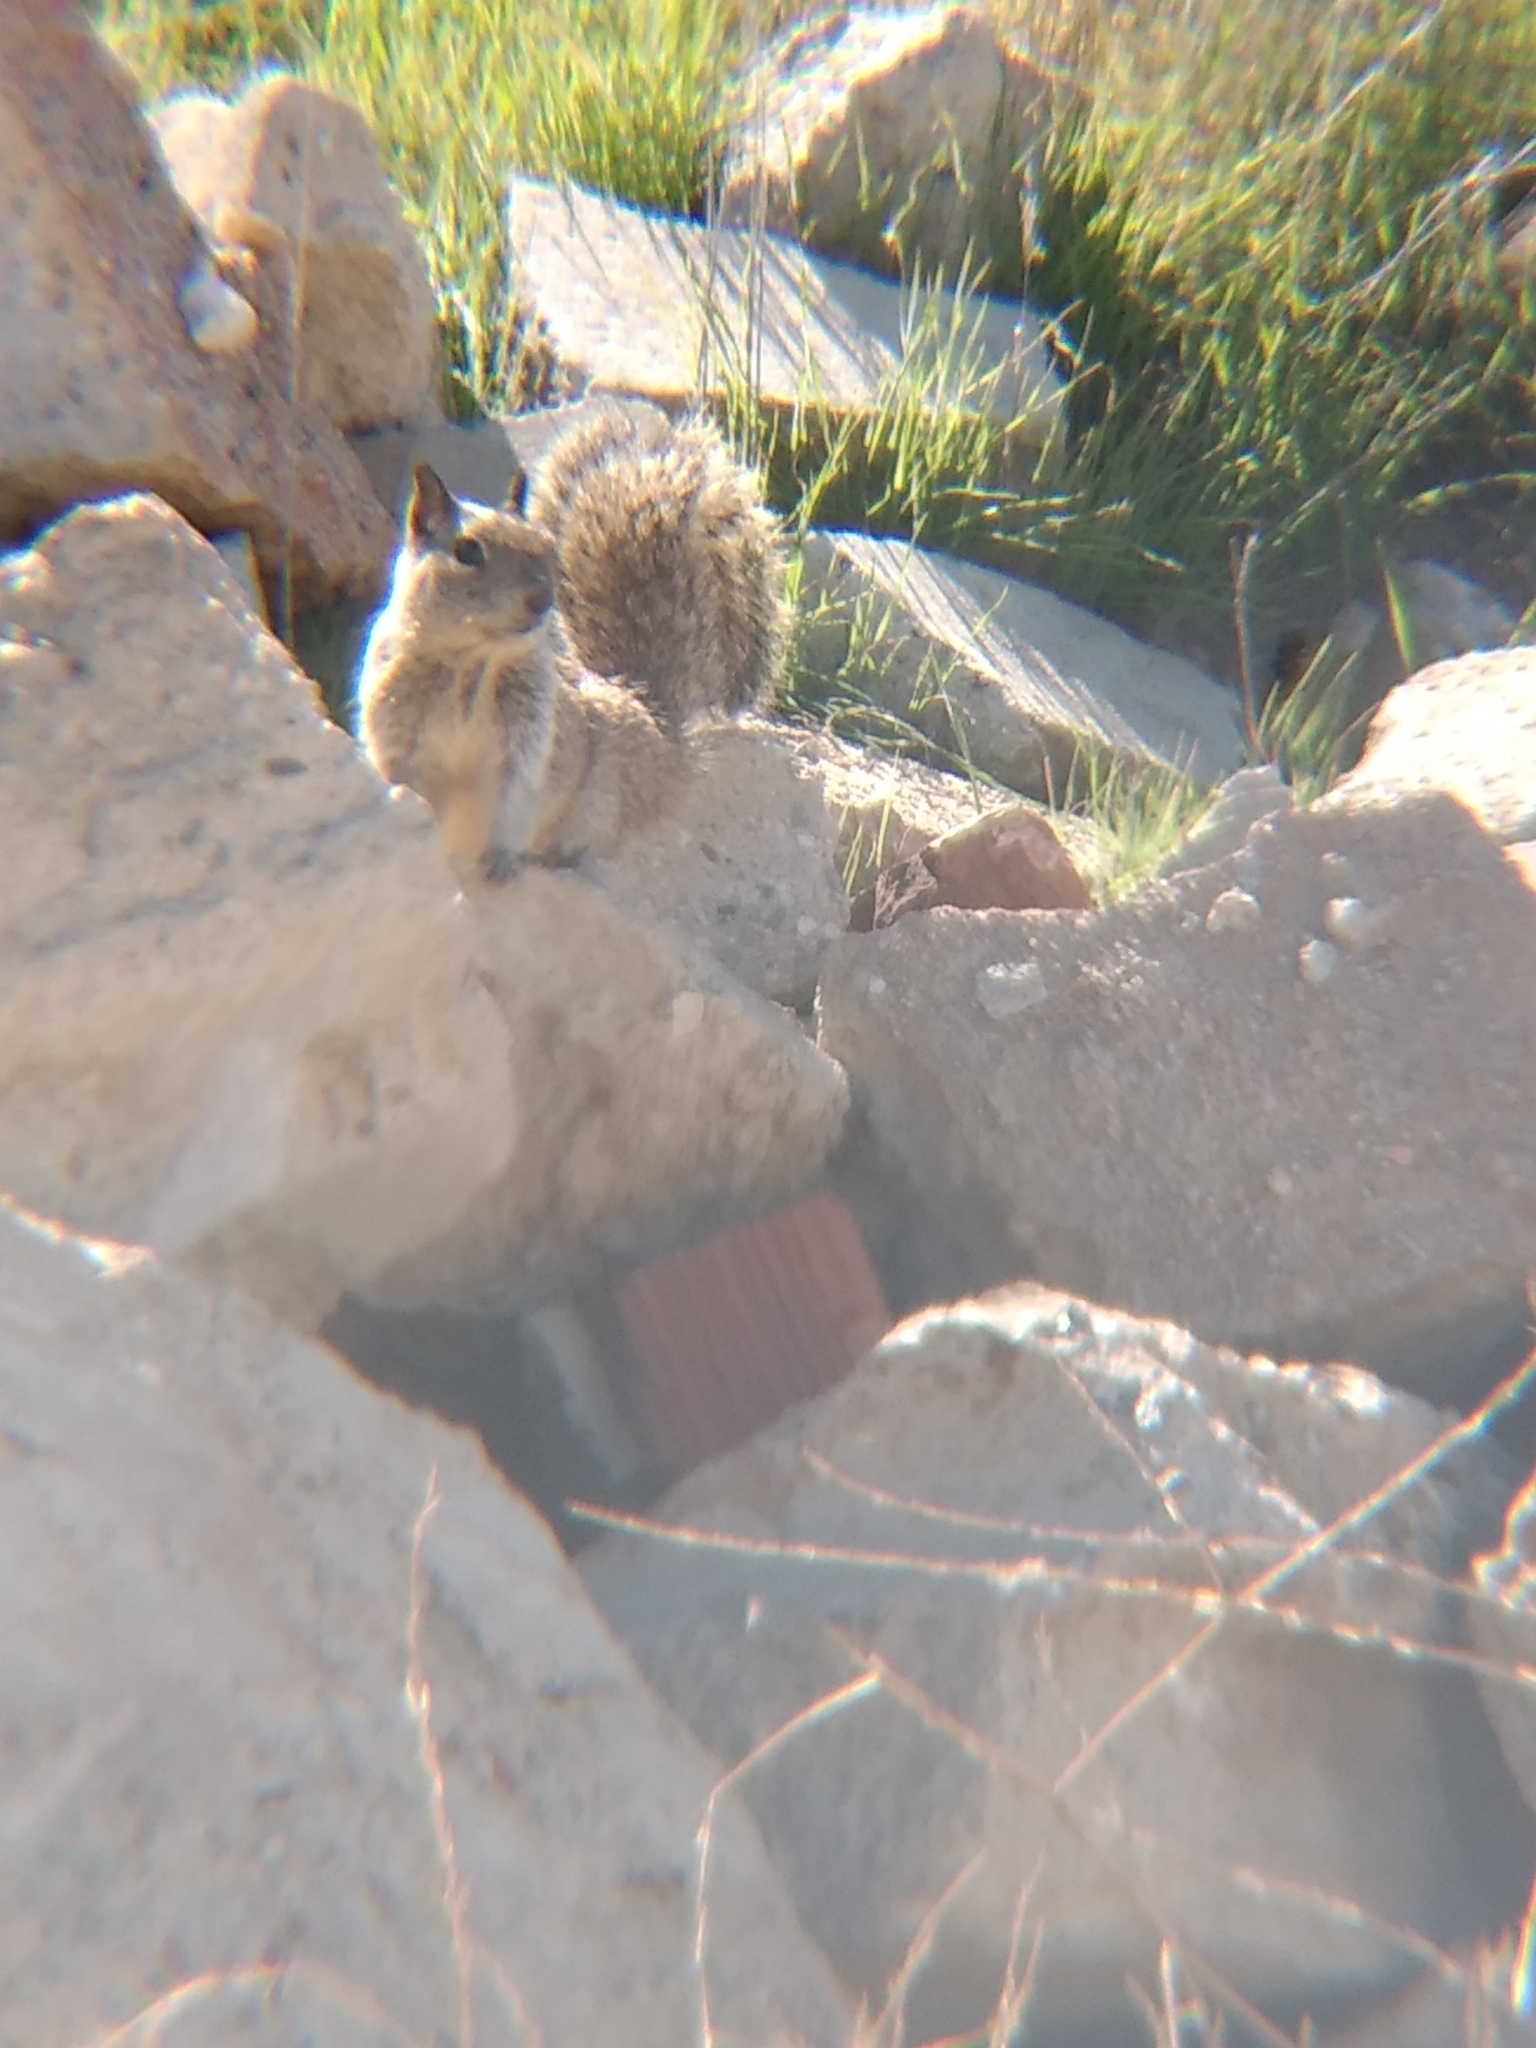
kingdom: Animalia
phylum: Chordata
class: Mammalia
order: Rodentia
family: Sciuridae
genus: Otospermophilus
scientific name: Otospermophilus beecheyi
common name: California ground squirrel
